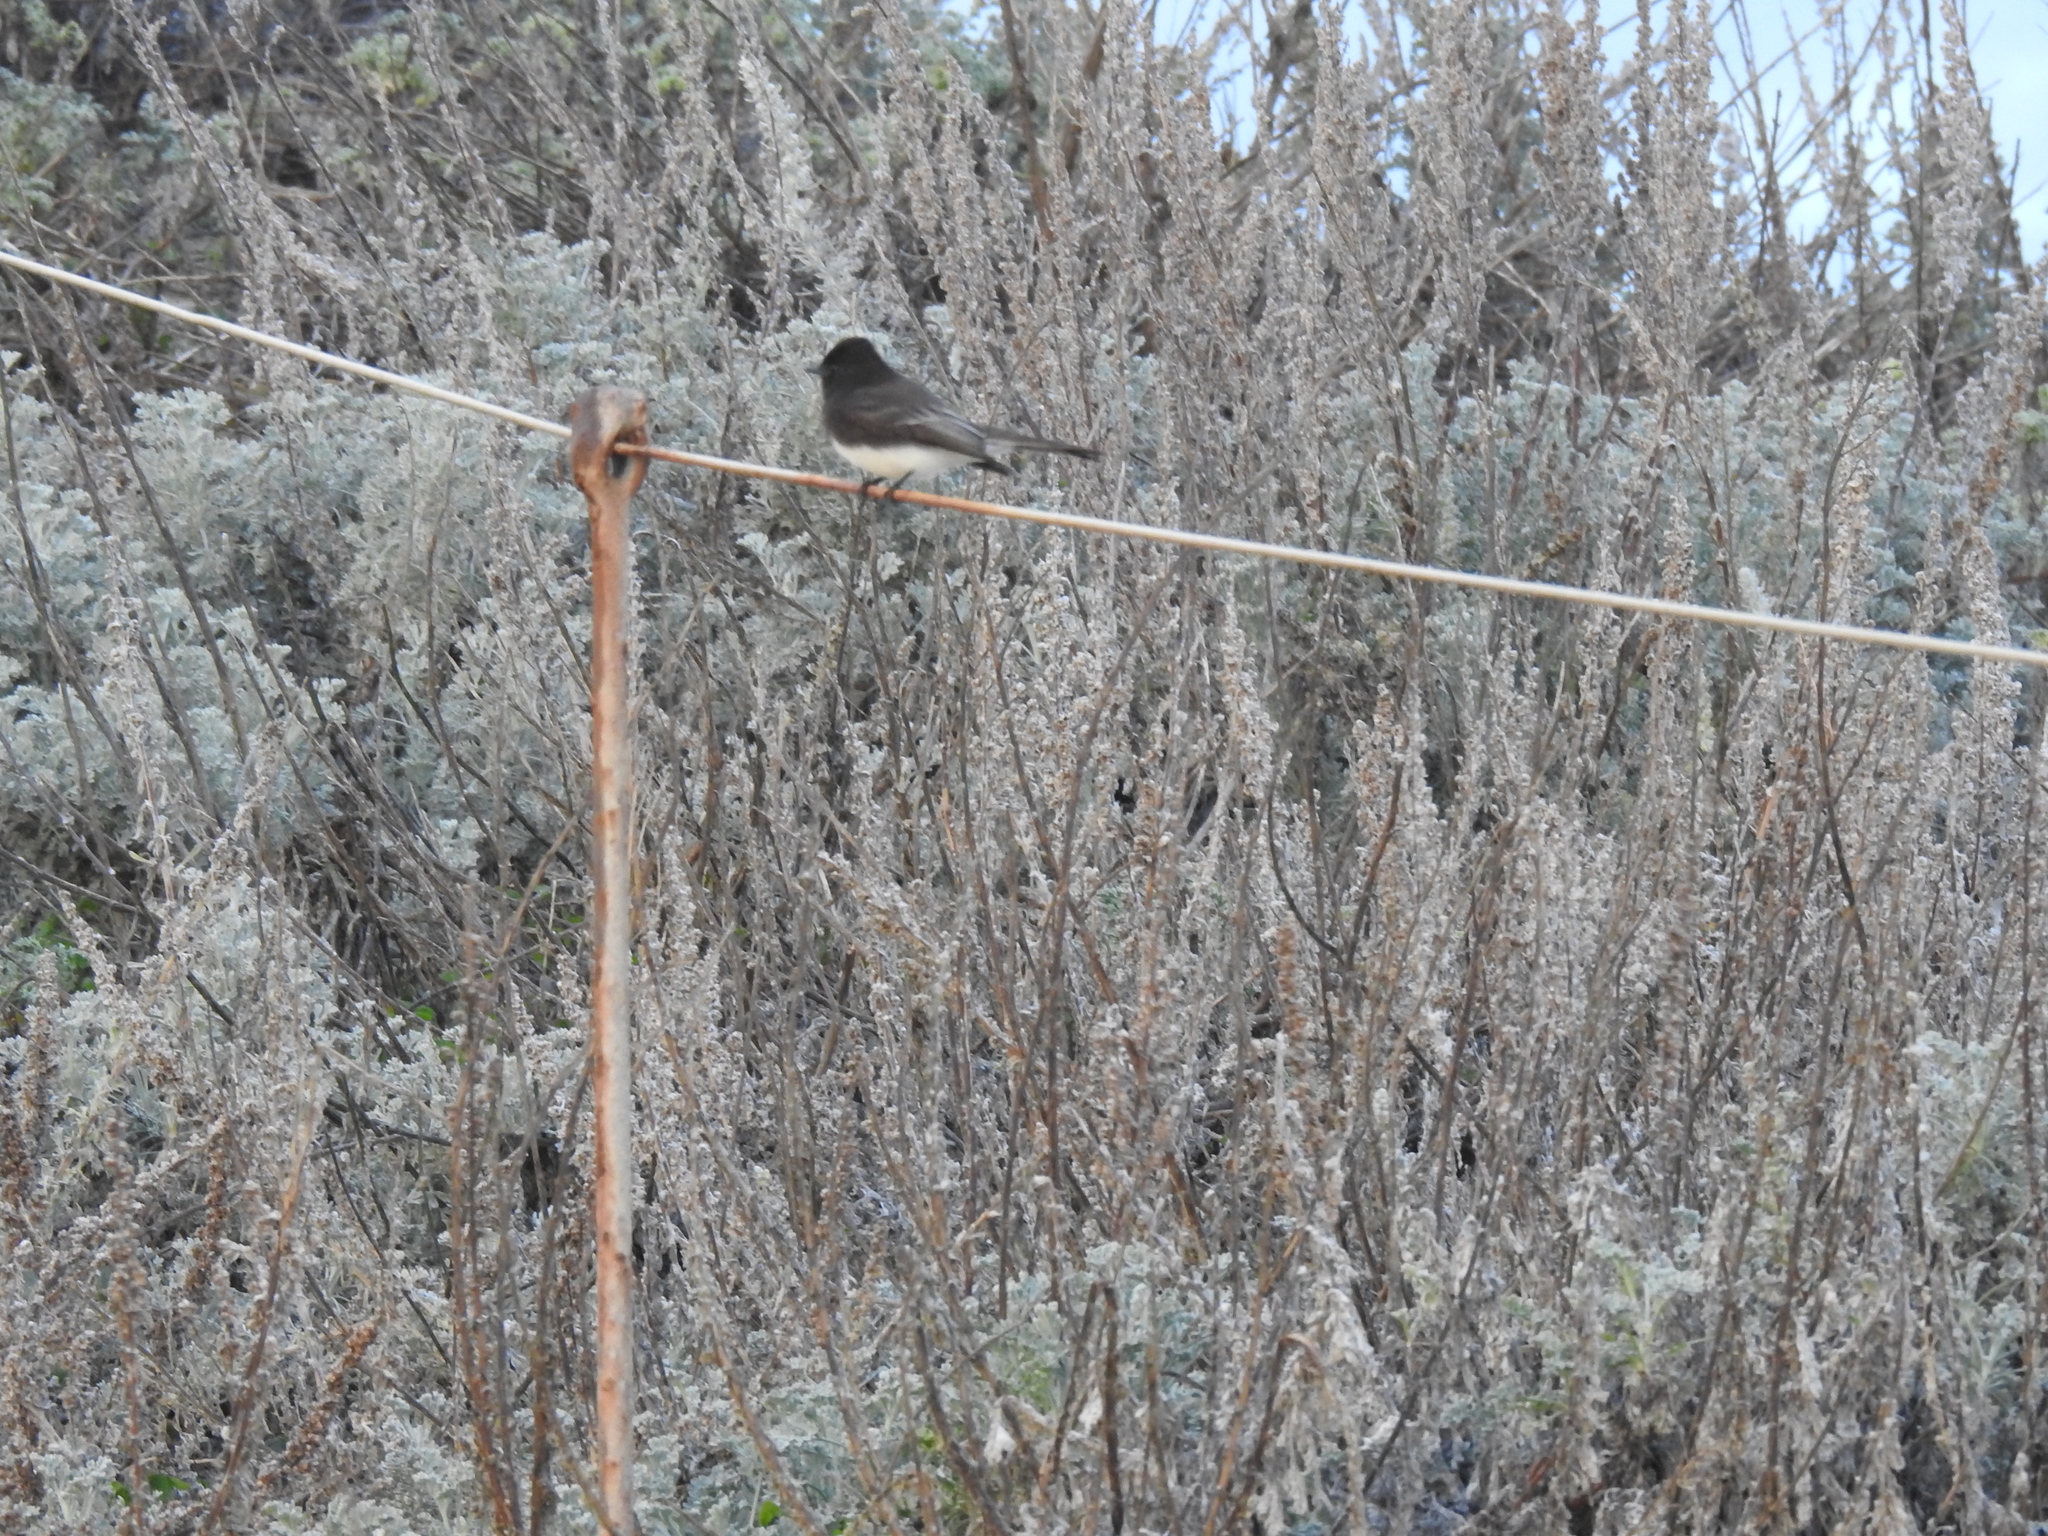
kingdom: Animalia
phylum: Chordata
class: Aves
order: Passeriformes
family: Tyrannidae
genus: Sayornis
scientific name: Sayornis nigricans
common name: Black phoebe
